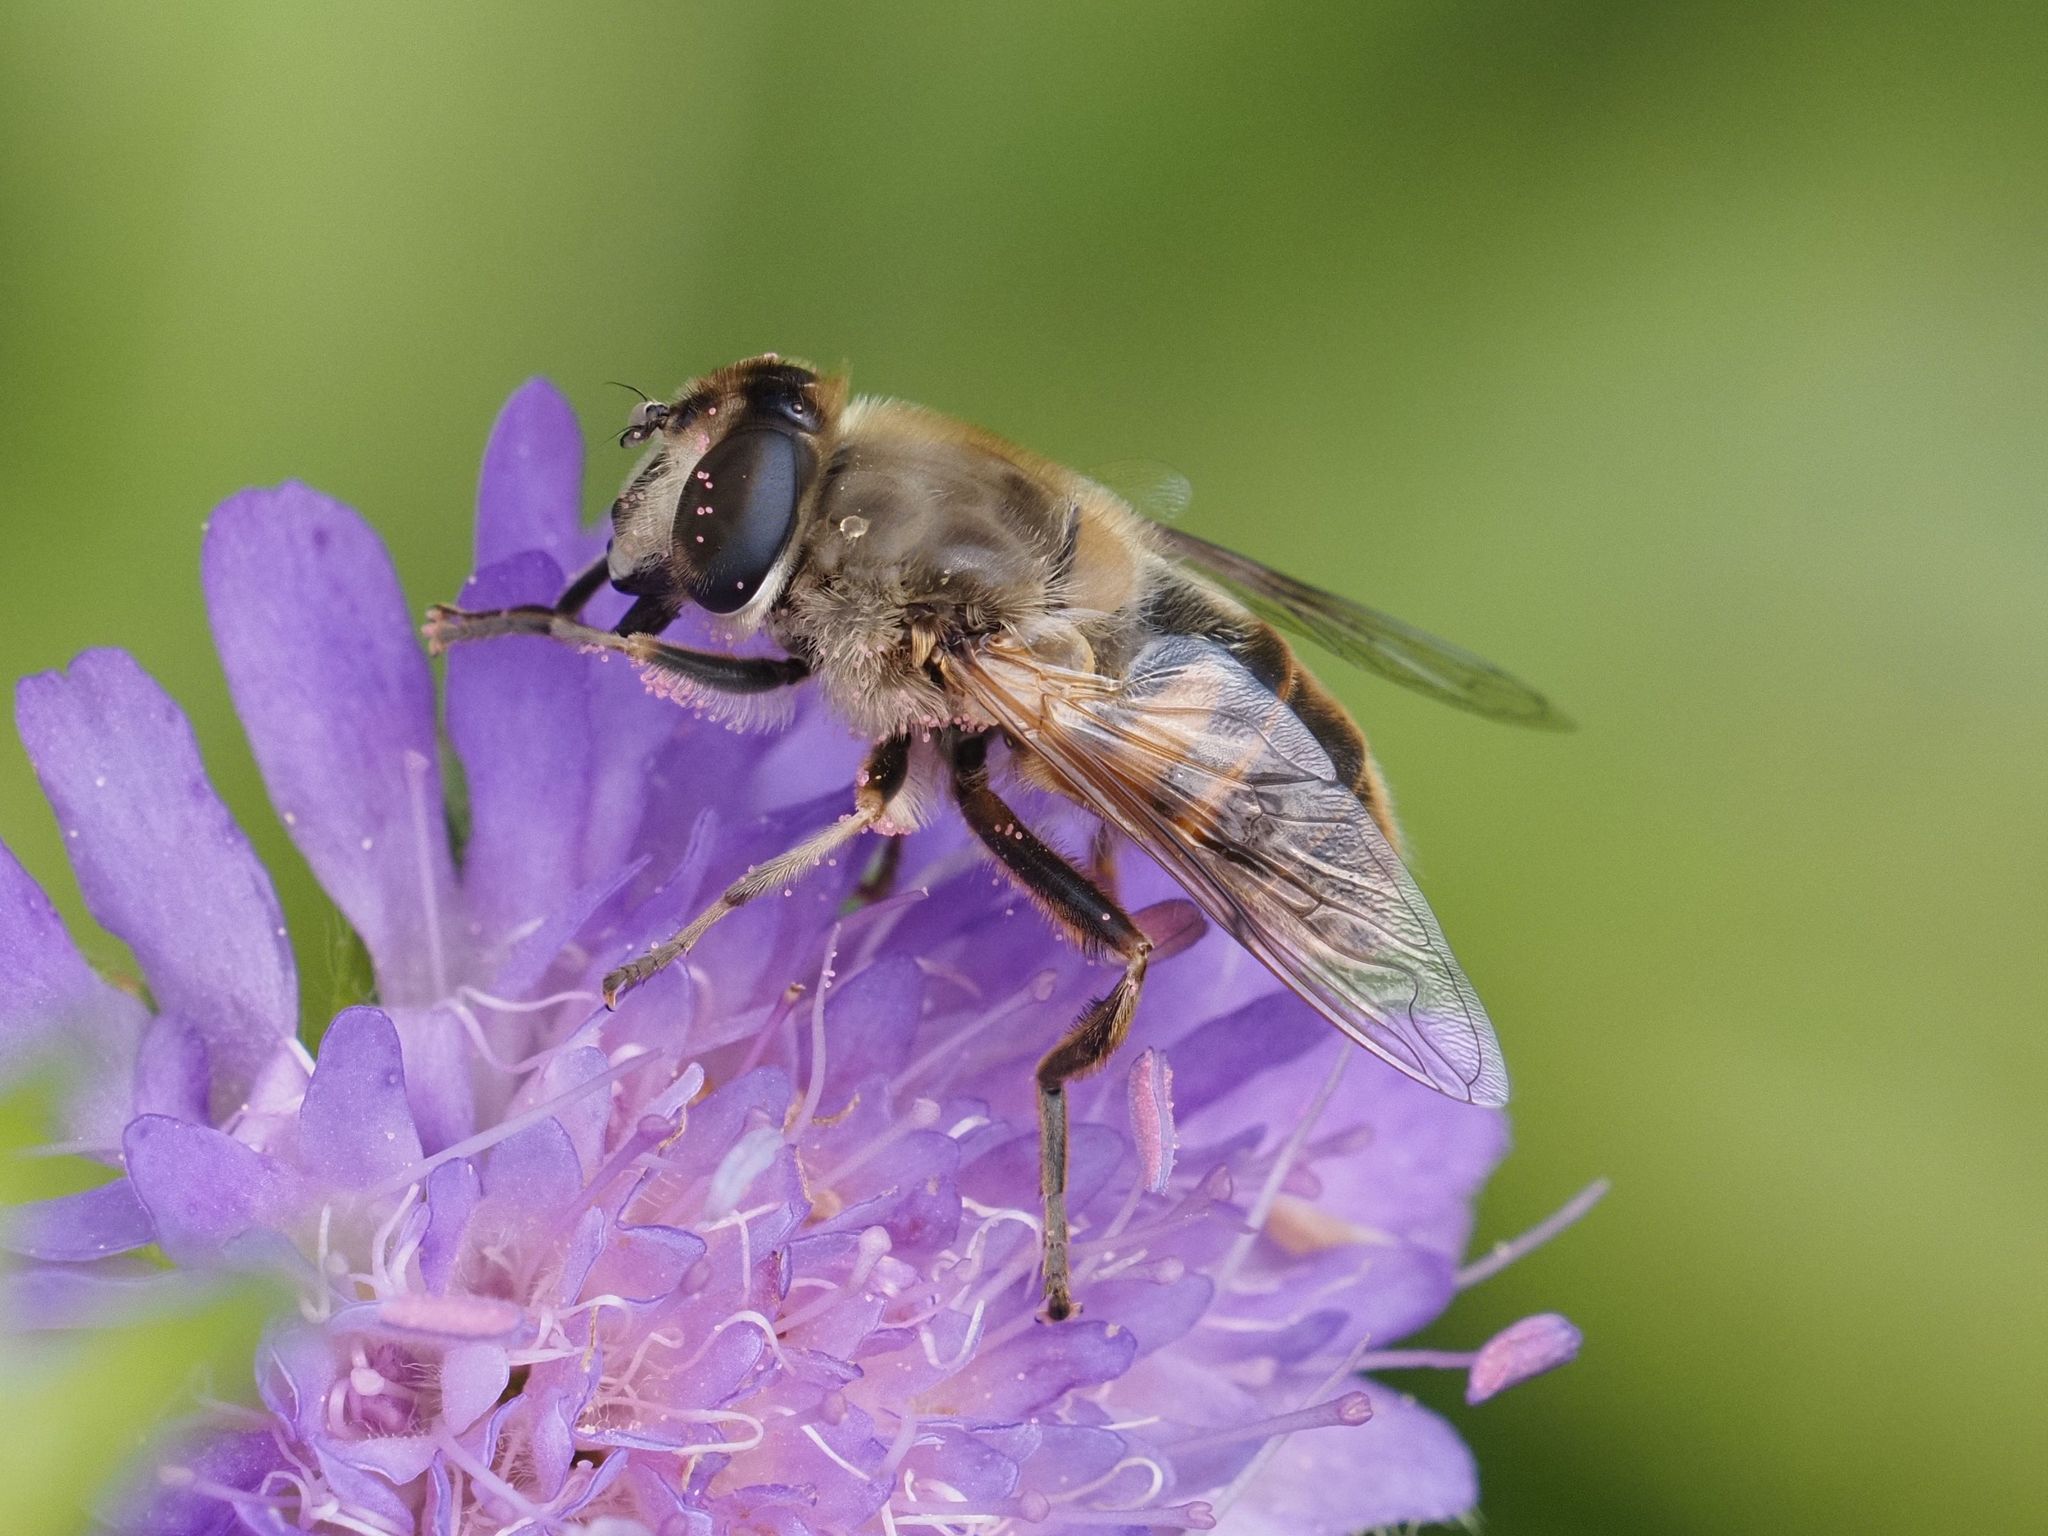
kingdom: Animalia
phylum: Arthropoda
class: Insecta
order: Diptera
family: Syrphidae
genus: Eristalis
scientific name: Eristalis tenax
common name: Drone fly
